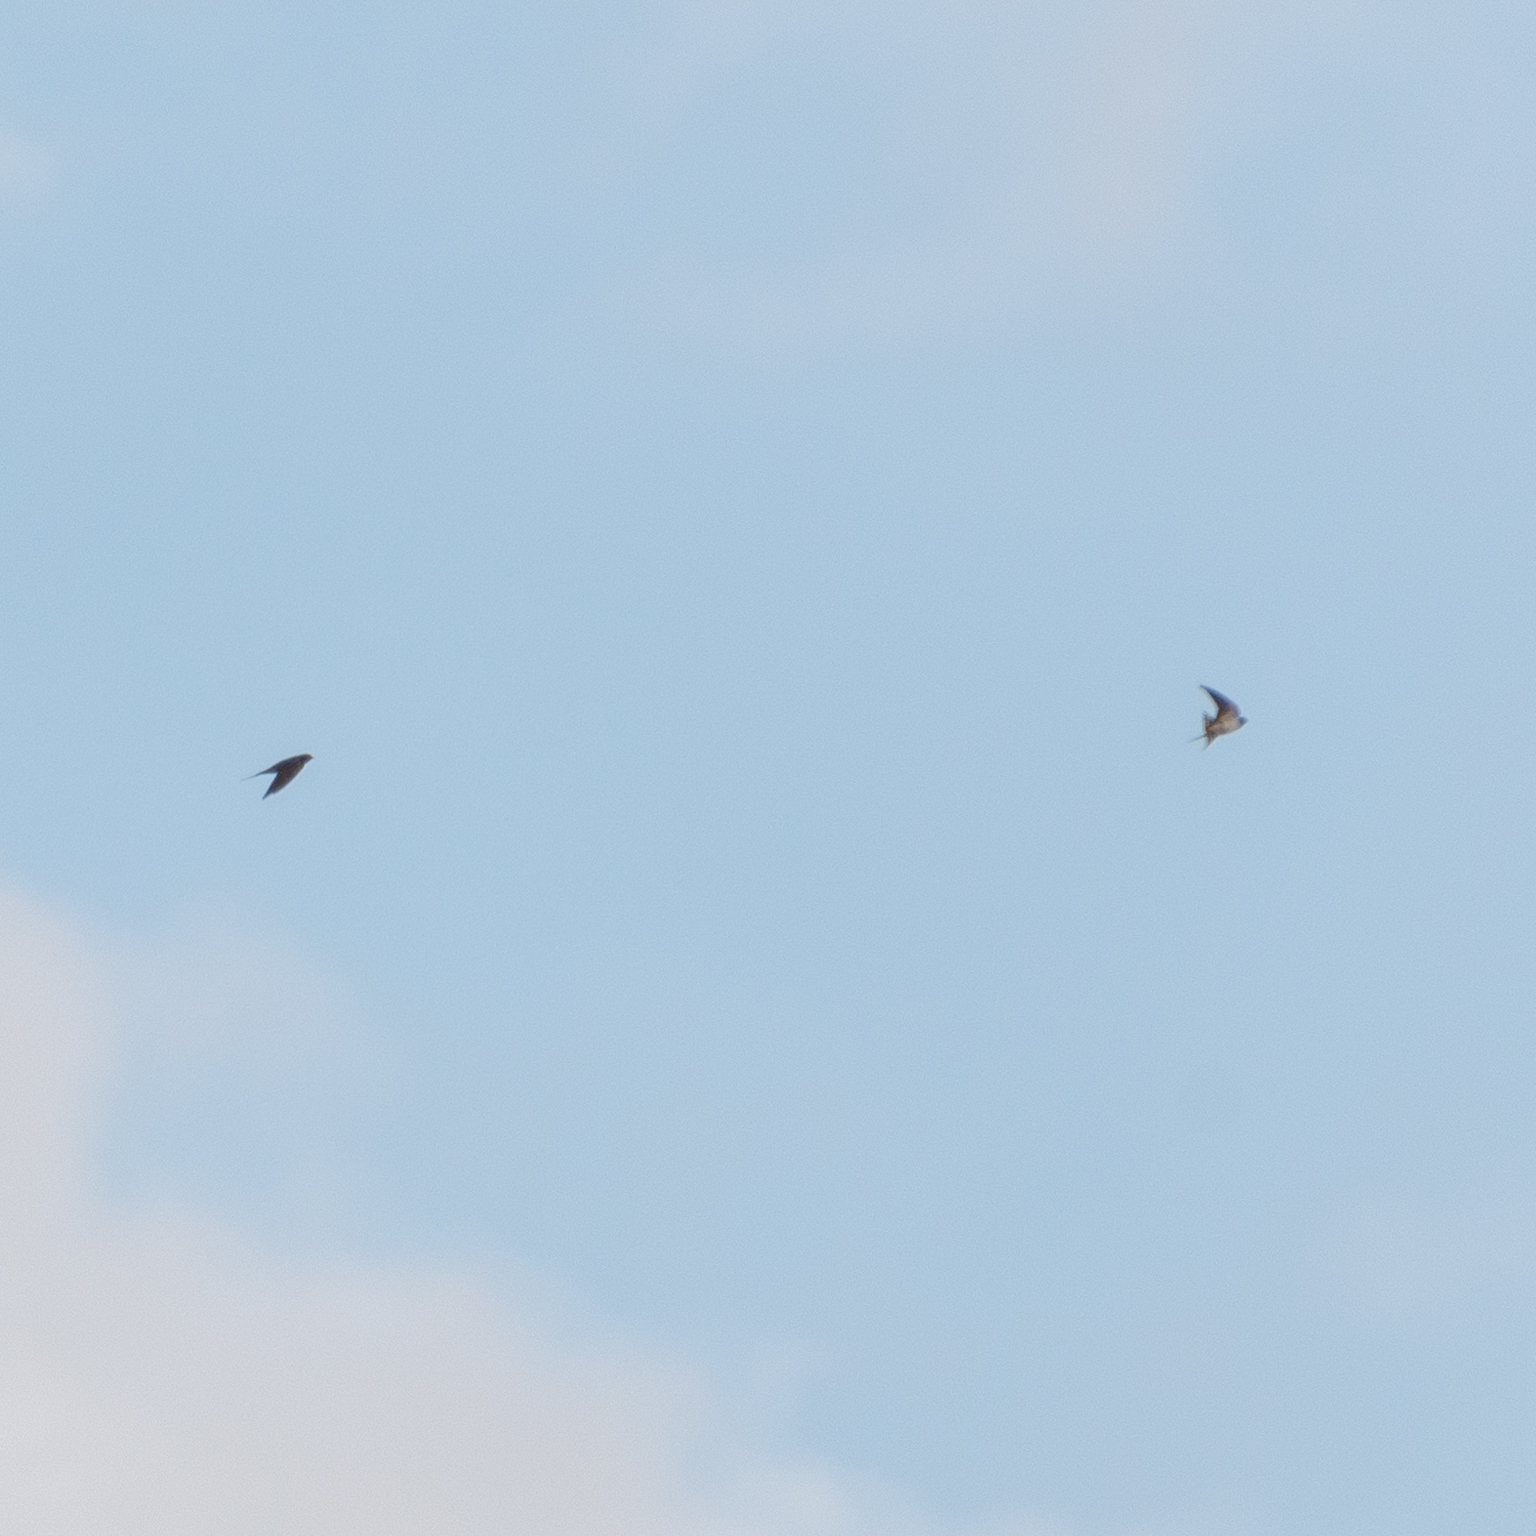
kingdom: Animalia
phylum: Chordata
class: Aves
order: Passeriformes
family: Hirundinidae
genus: Hirundo
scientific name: Hirundo rustica
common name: Barn swallow
